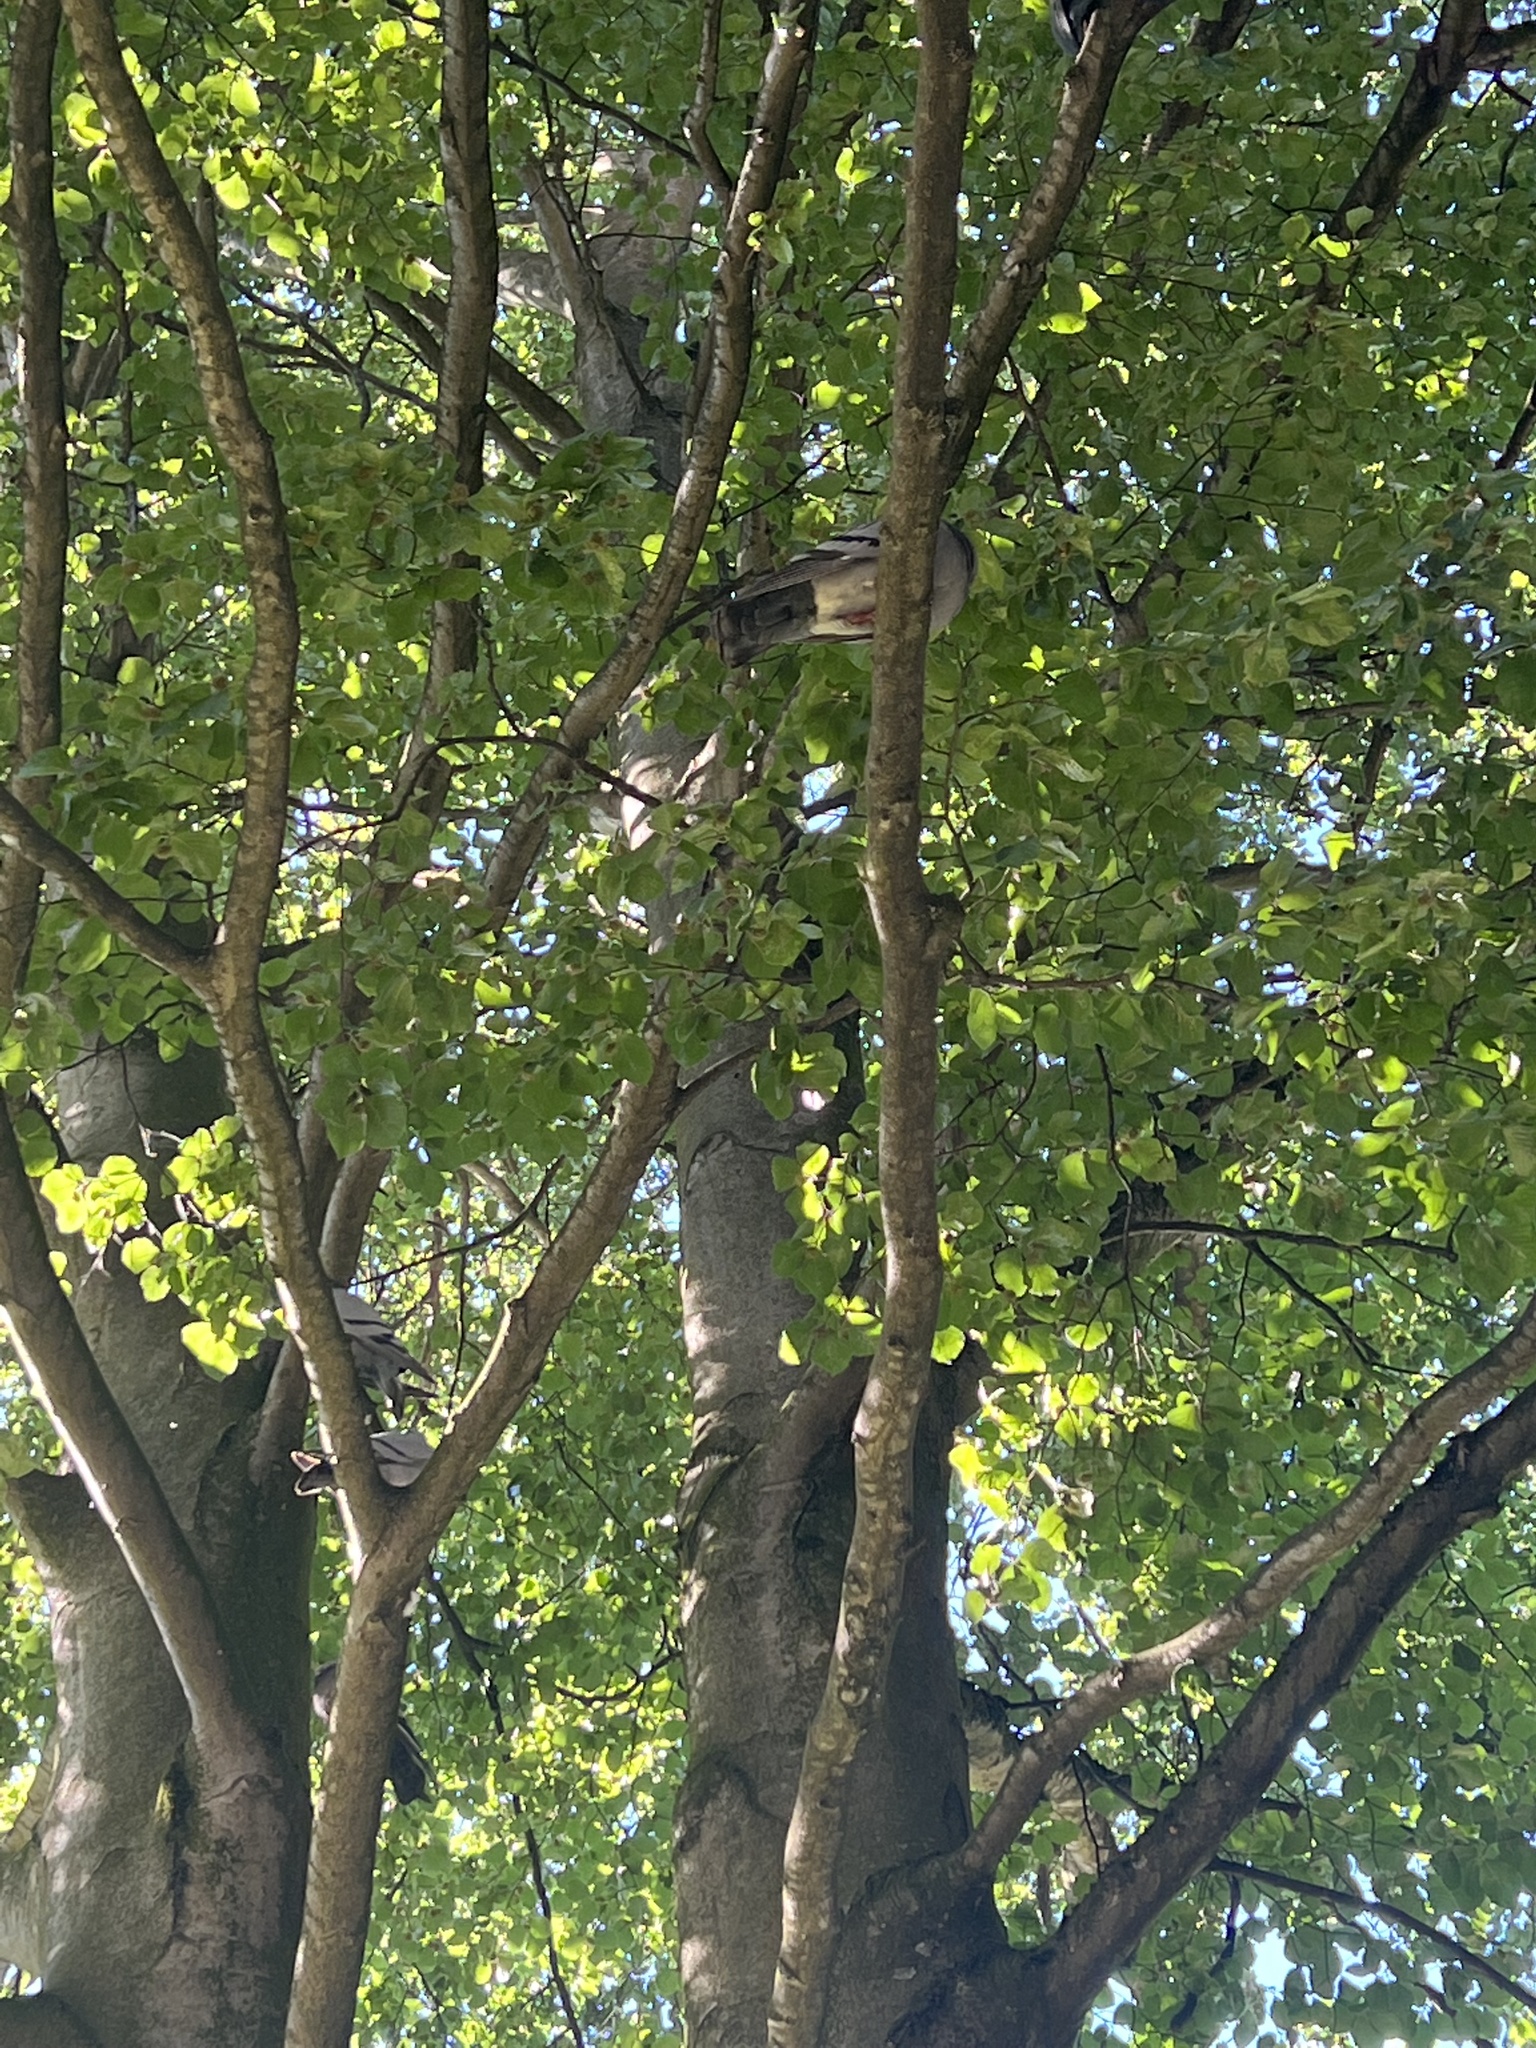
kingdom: Animalia
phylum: Chordata
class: Aves
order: Columbiformes
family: Columbidae
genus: Columba
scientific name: Columba livia
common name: Rock pigeon
